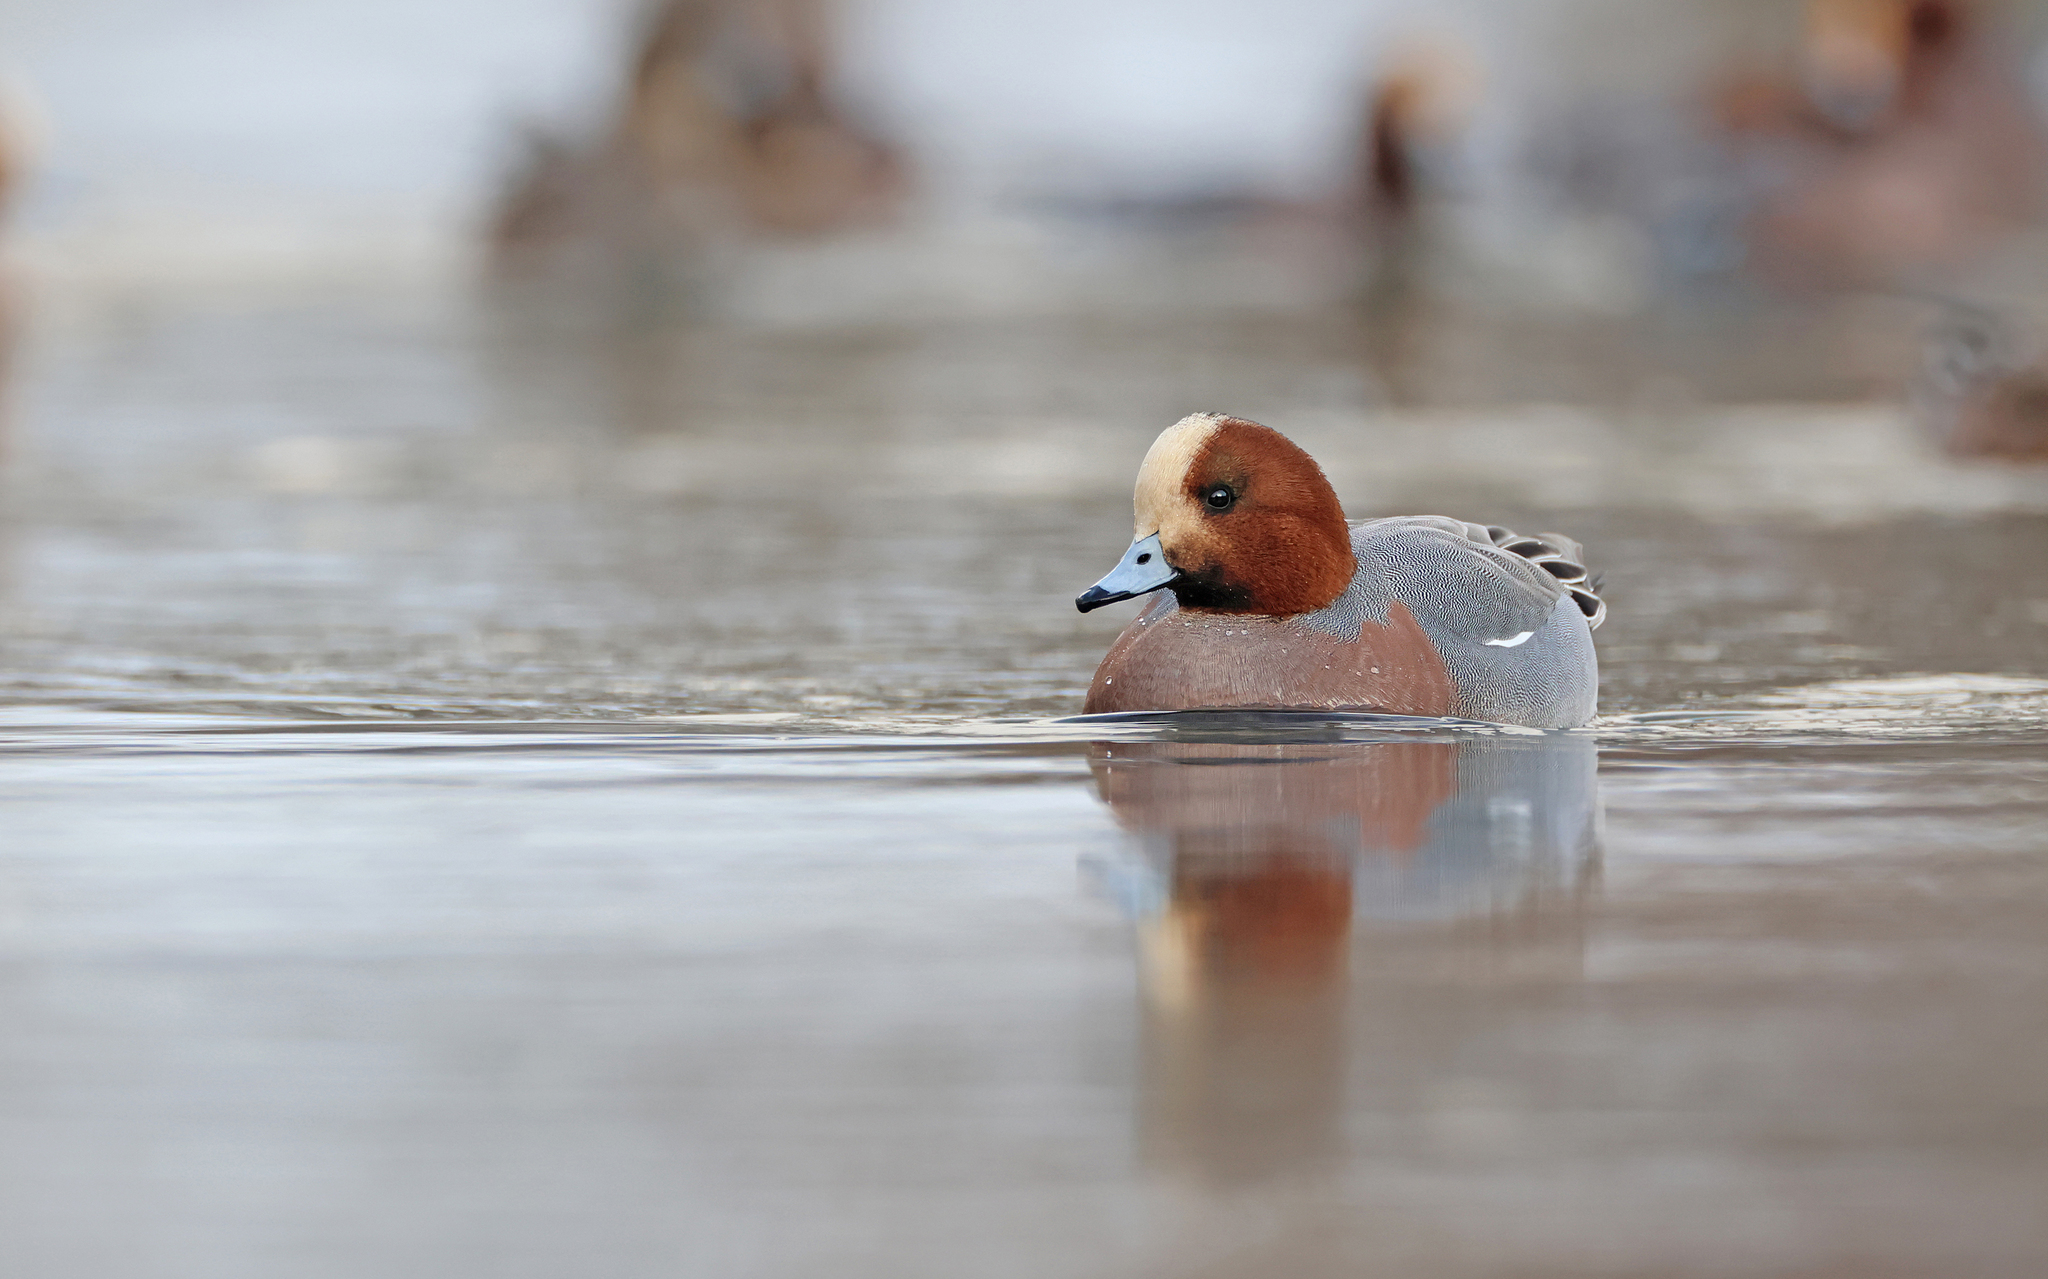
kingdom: Animalia
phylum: Chordata
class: Aves
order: Anseriformes
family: Anatidae
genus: Mareca
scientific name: Mareca penelope
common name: Eurasian wigeon
